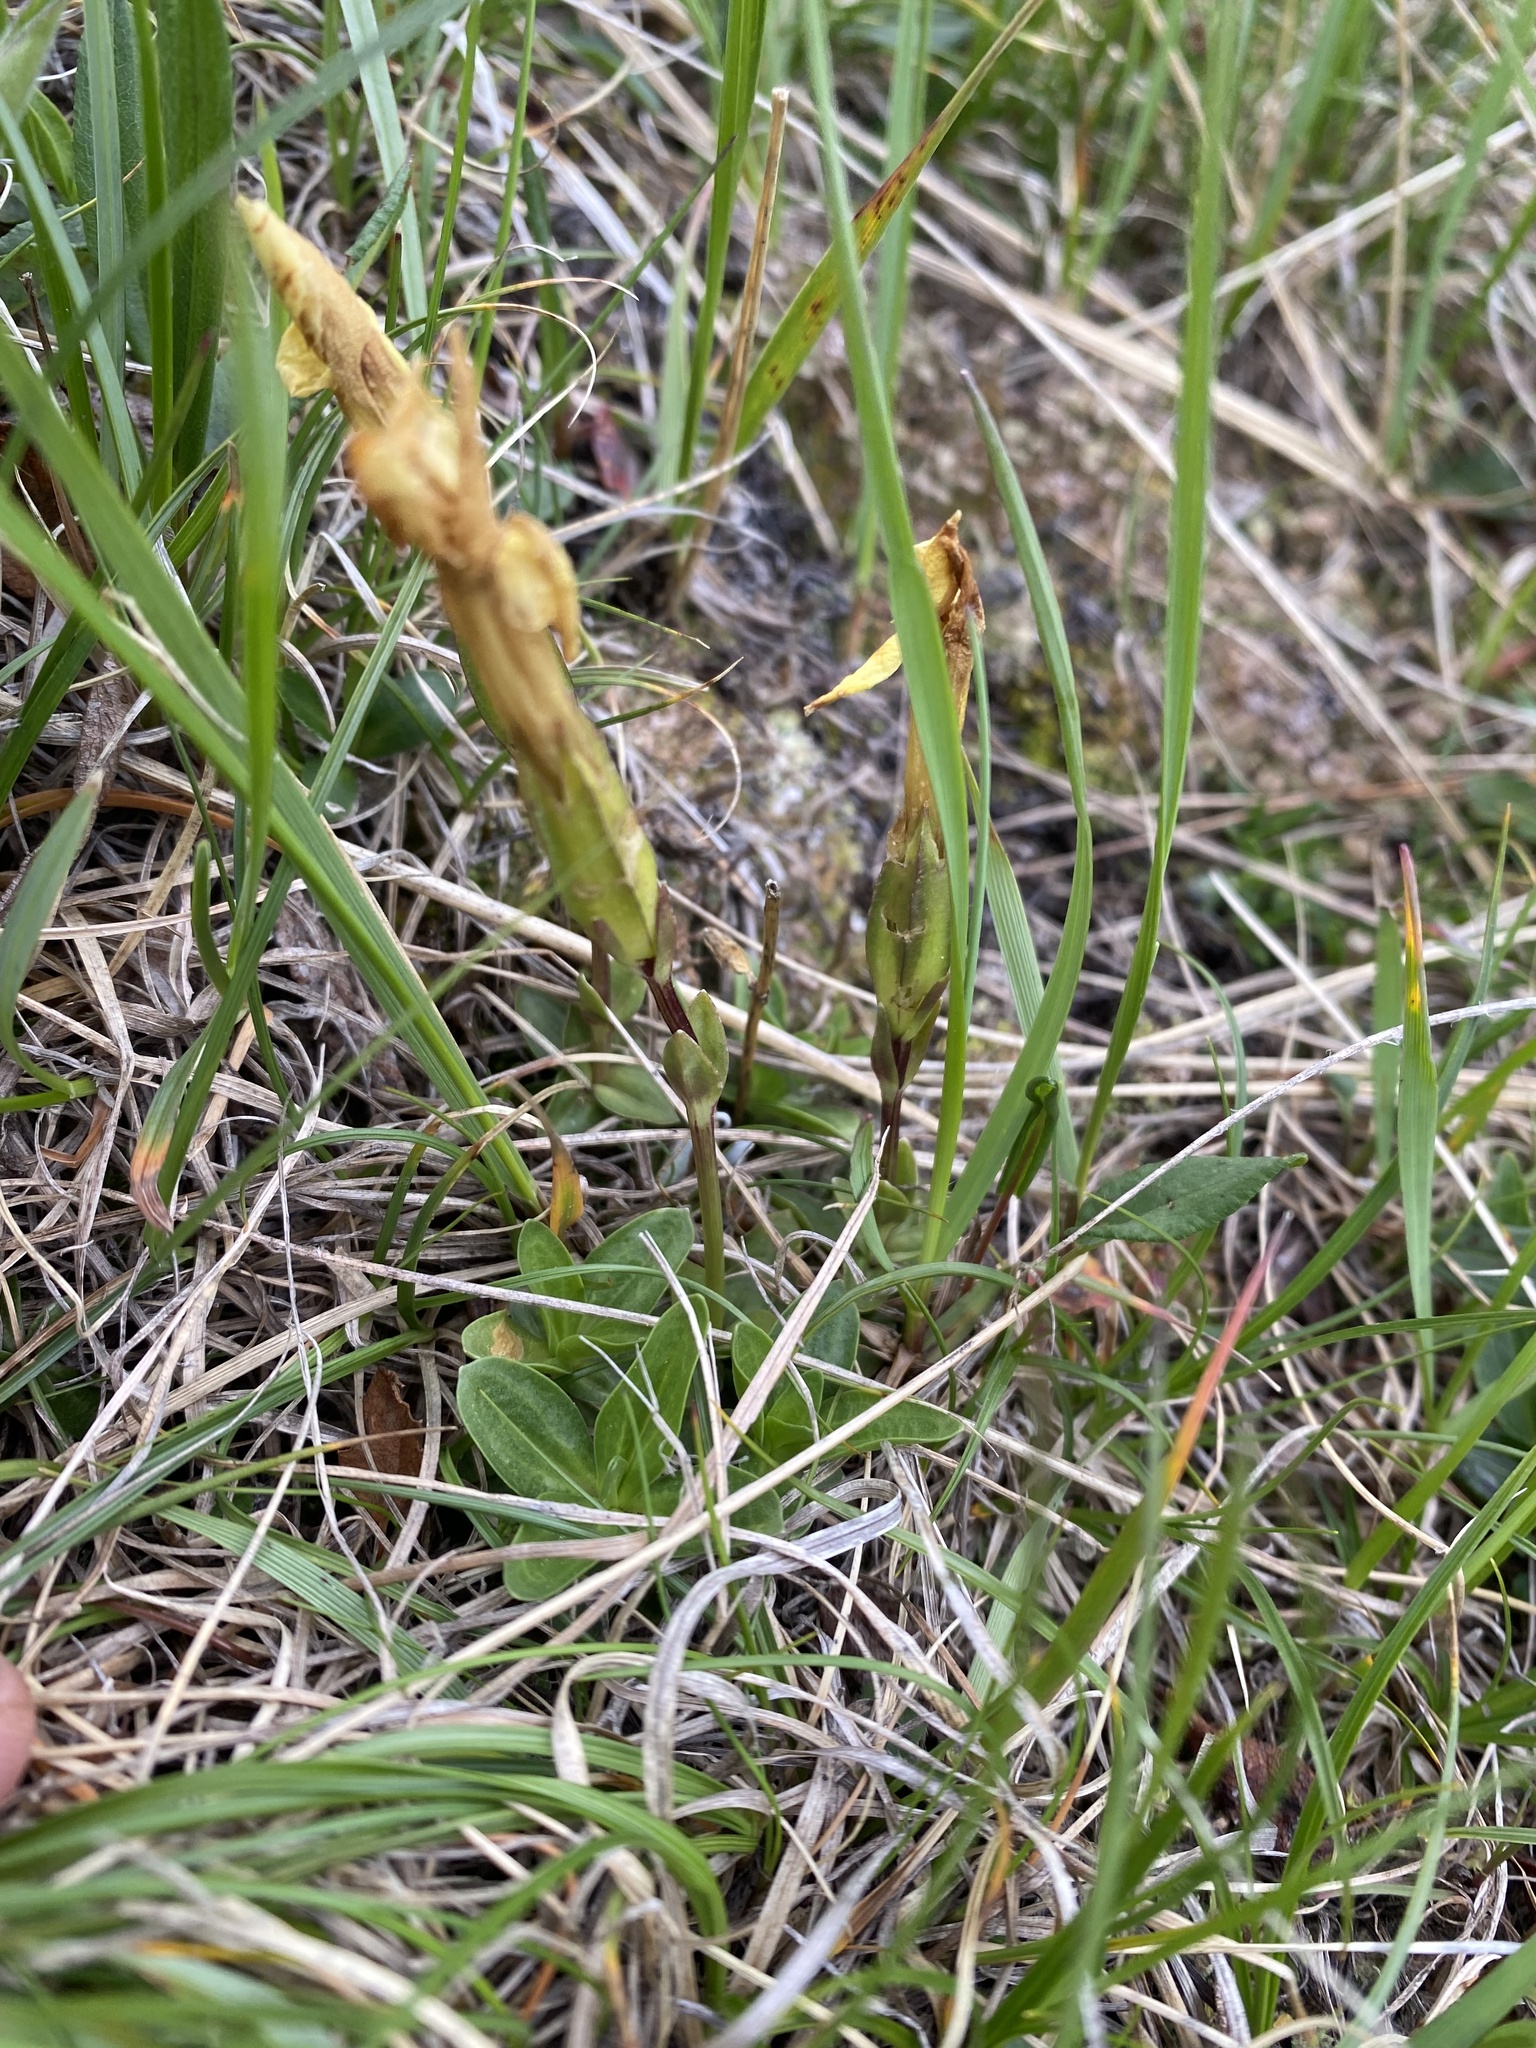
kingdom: Plantae
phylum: Tracheophyta
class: Magnoliopsida
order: Gentianales
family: Gentianaceae
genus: Gentiana
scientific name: Gentiana verna
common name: Spring gentian
